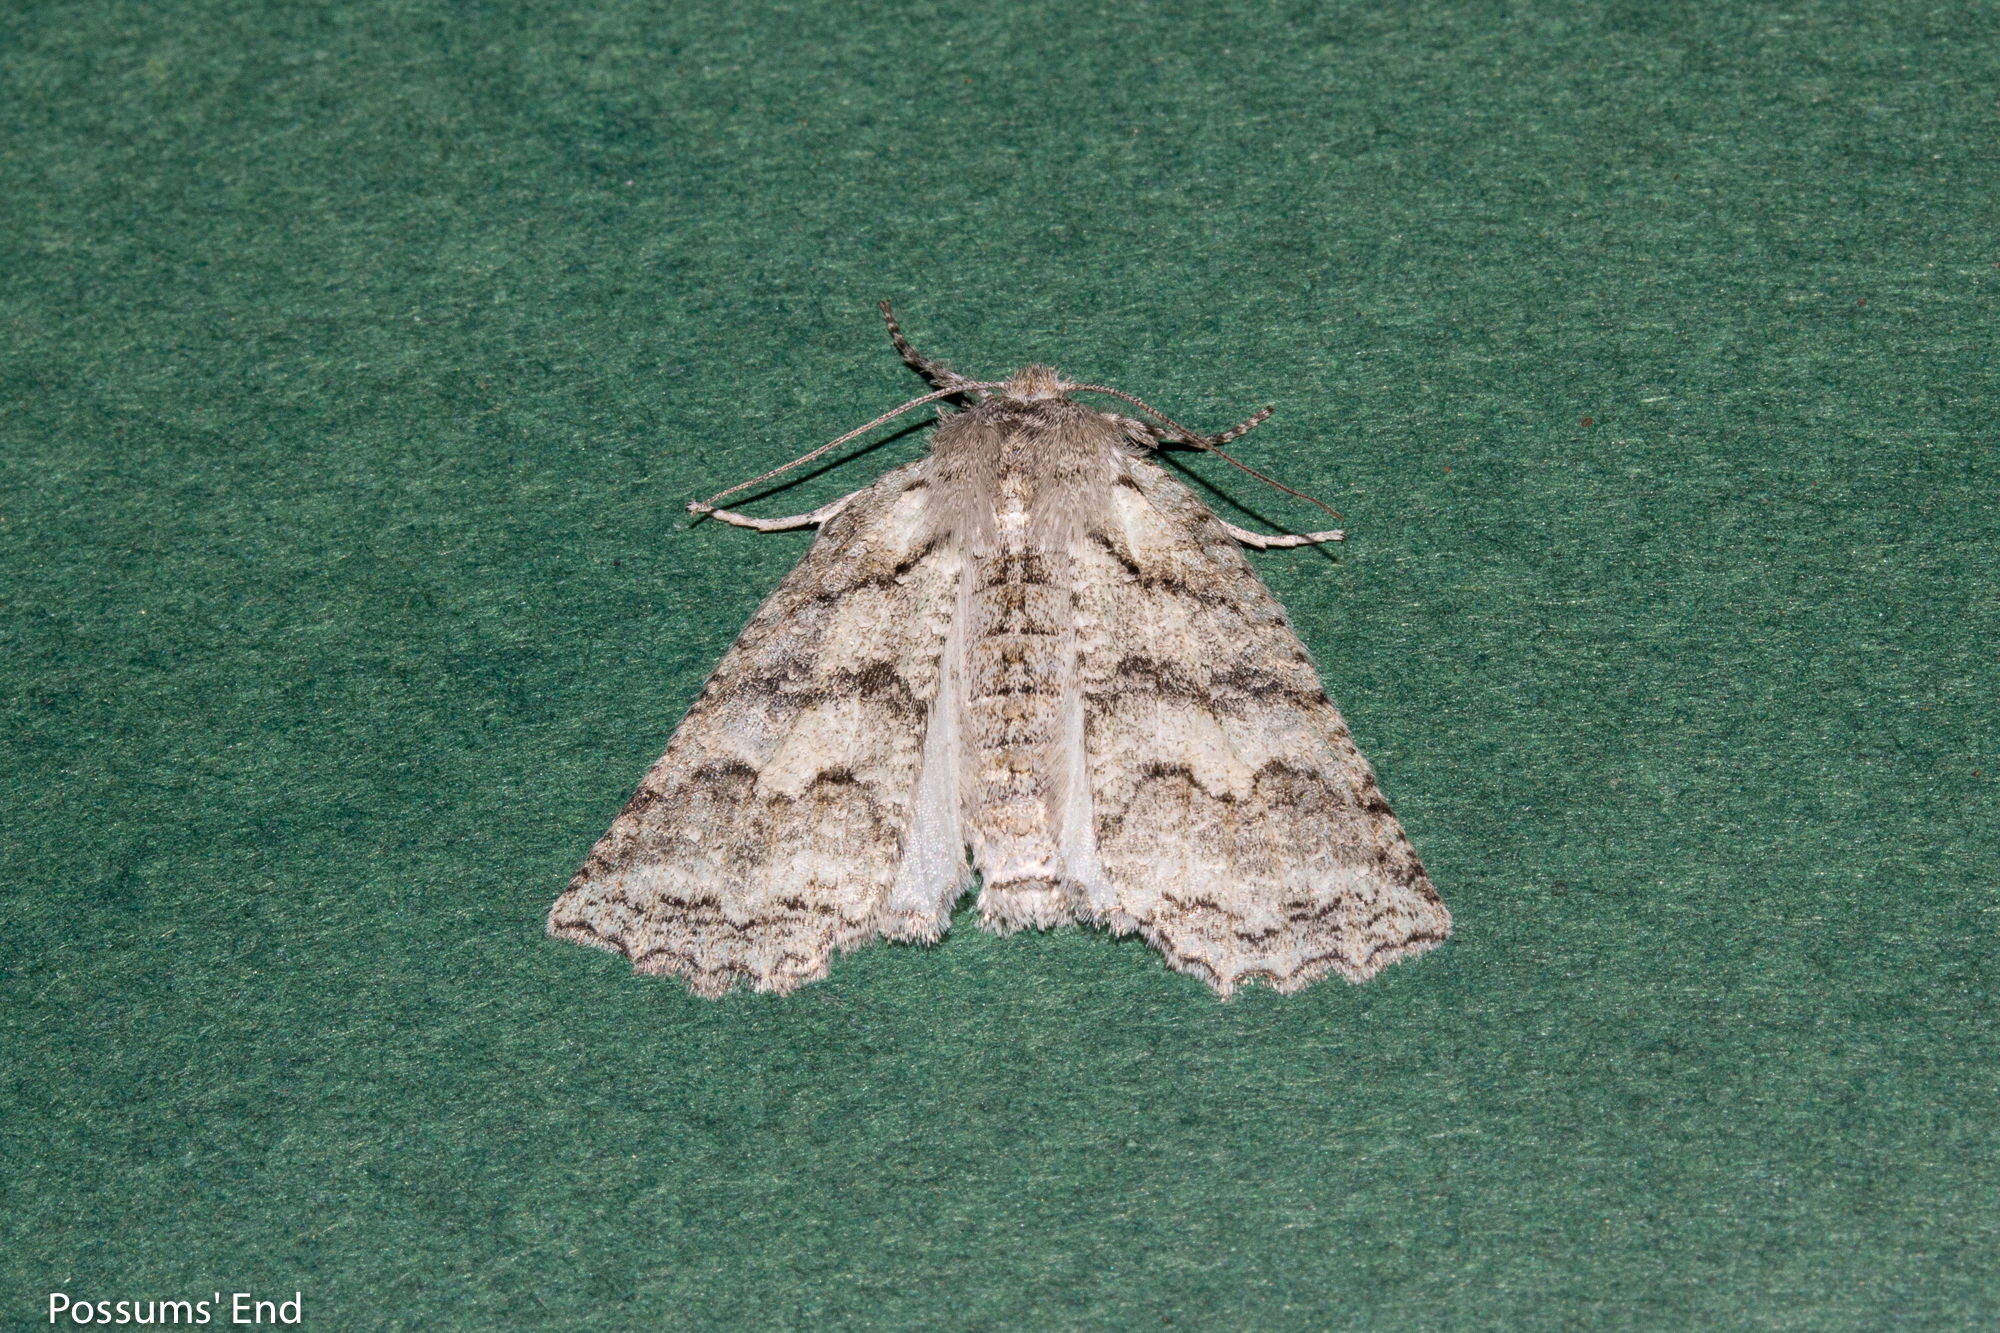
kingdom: Animalia
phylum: Arthropoda
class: Insecta
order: Lepidoptera
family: Geometridae
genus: Declana
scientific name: Declana niveata
